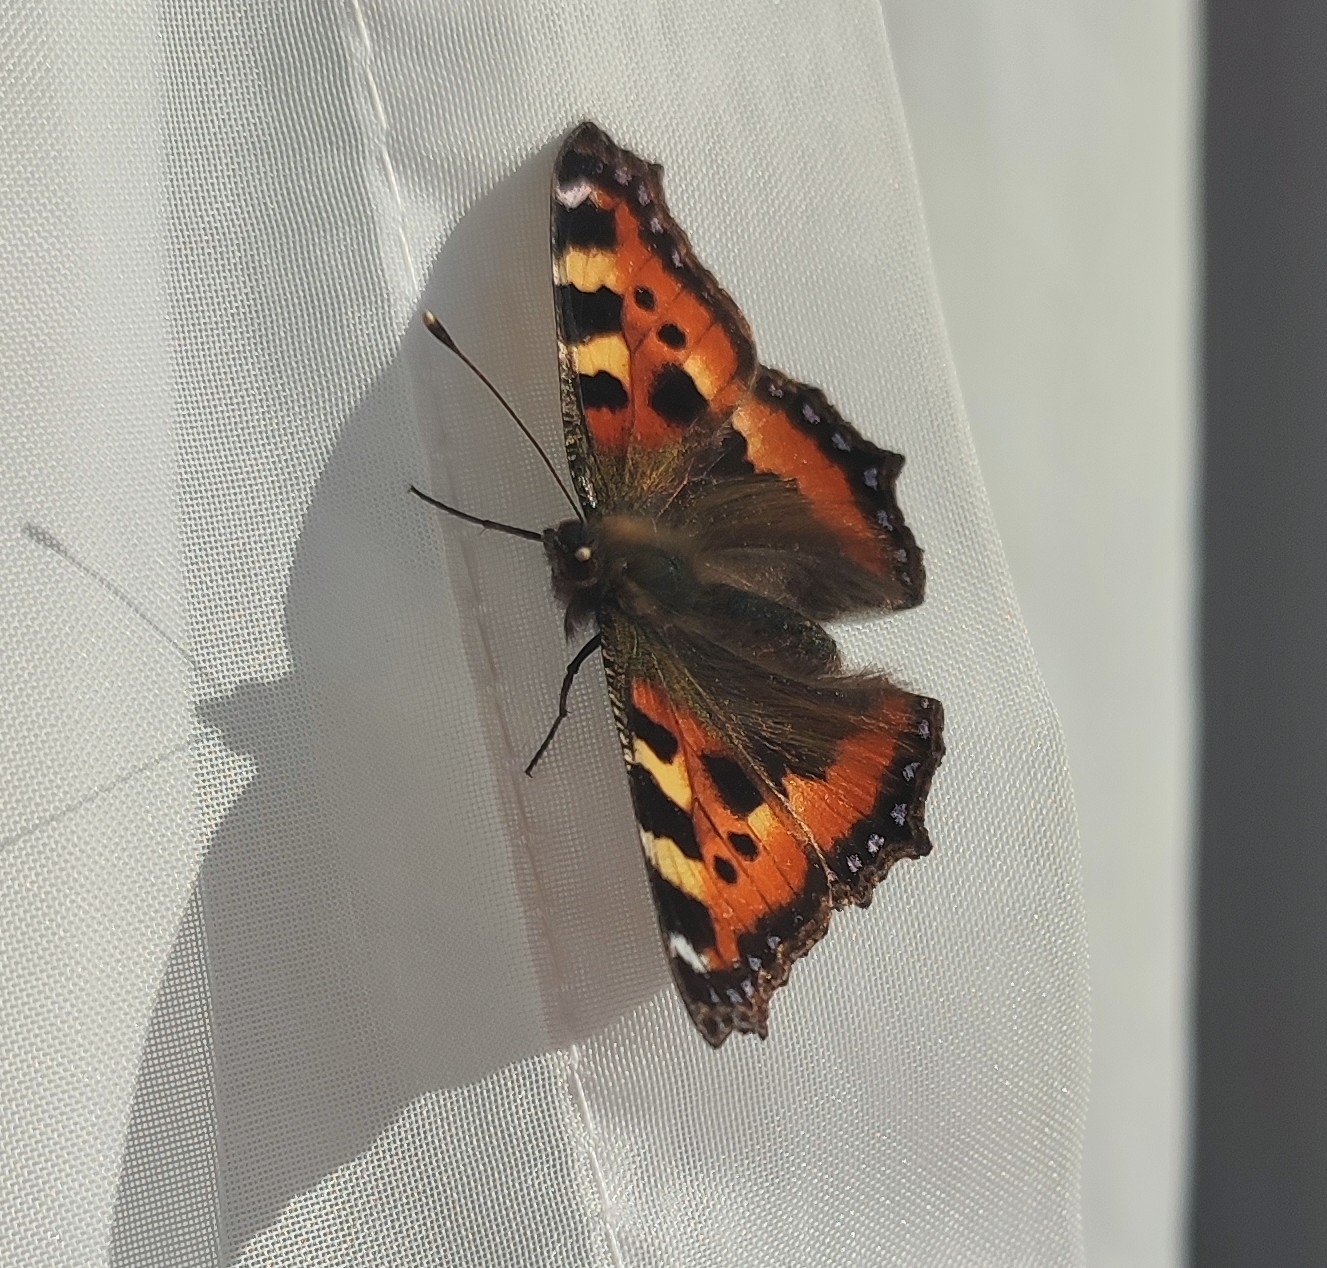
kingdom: Animalia
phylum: Arthropoda
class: Insecta
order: Lepidoptera
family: Nymphalidae
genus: Aglais
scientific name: Aglais urticae
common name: Small tortoiseshell
